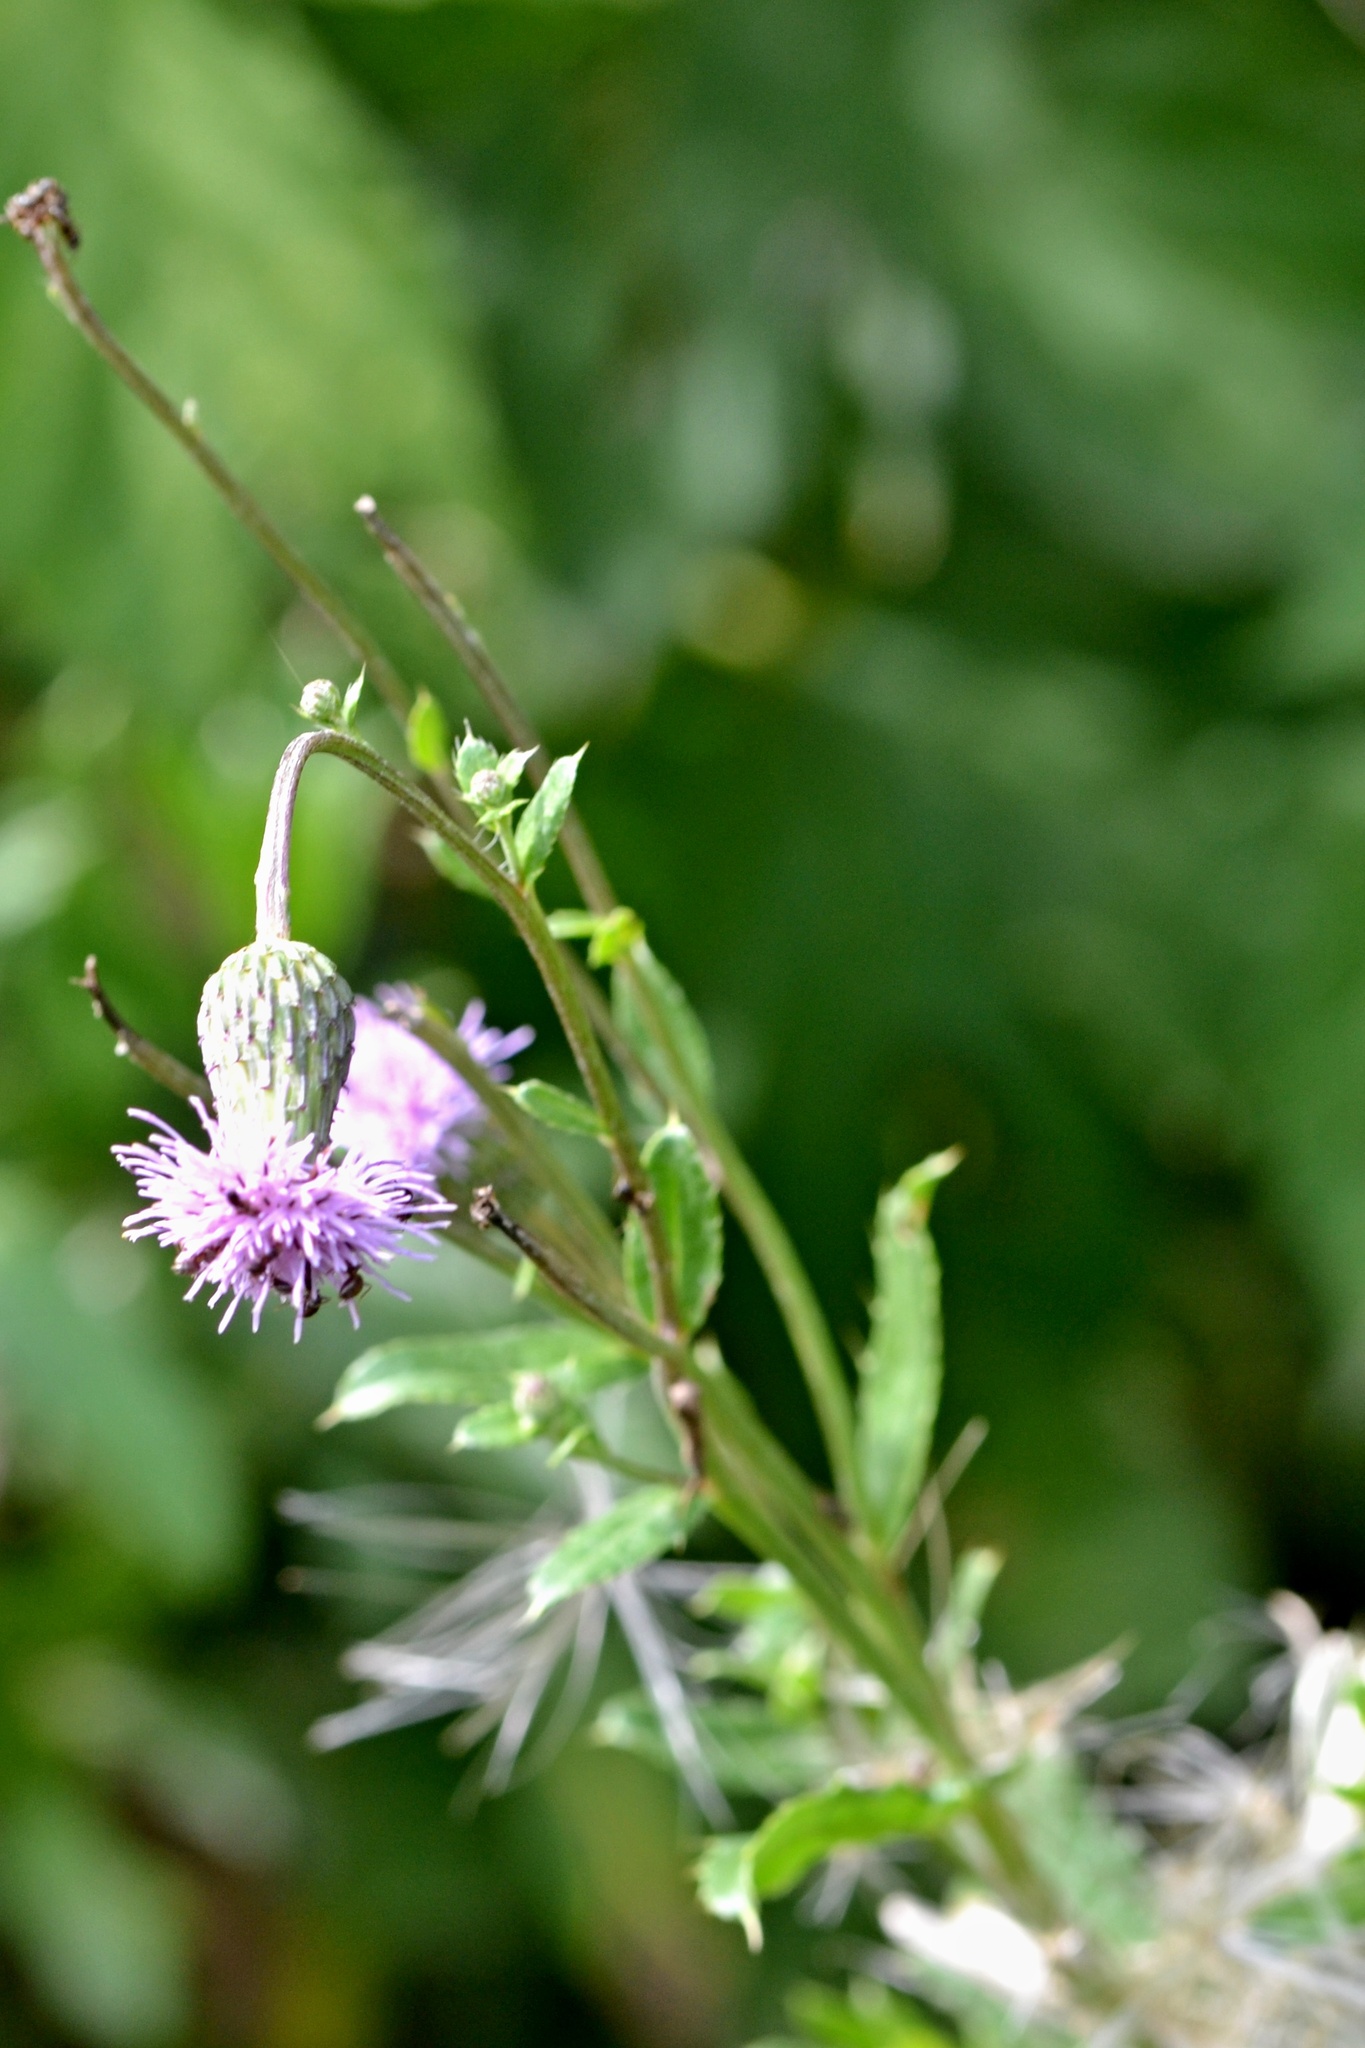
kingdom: Plantae
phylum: Tracheophyta
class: Magnoliopsida
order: Asterales
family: Asteraceae
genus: Cirsium
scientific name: Cirsium arvense
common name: Creeping thistle
